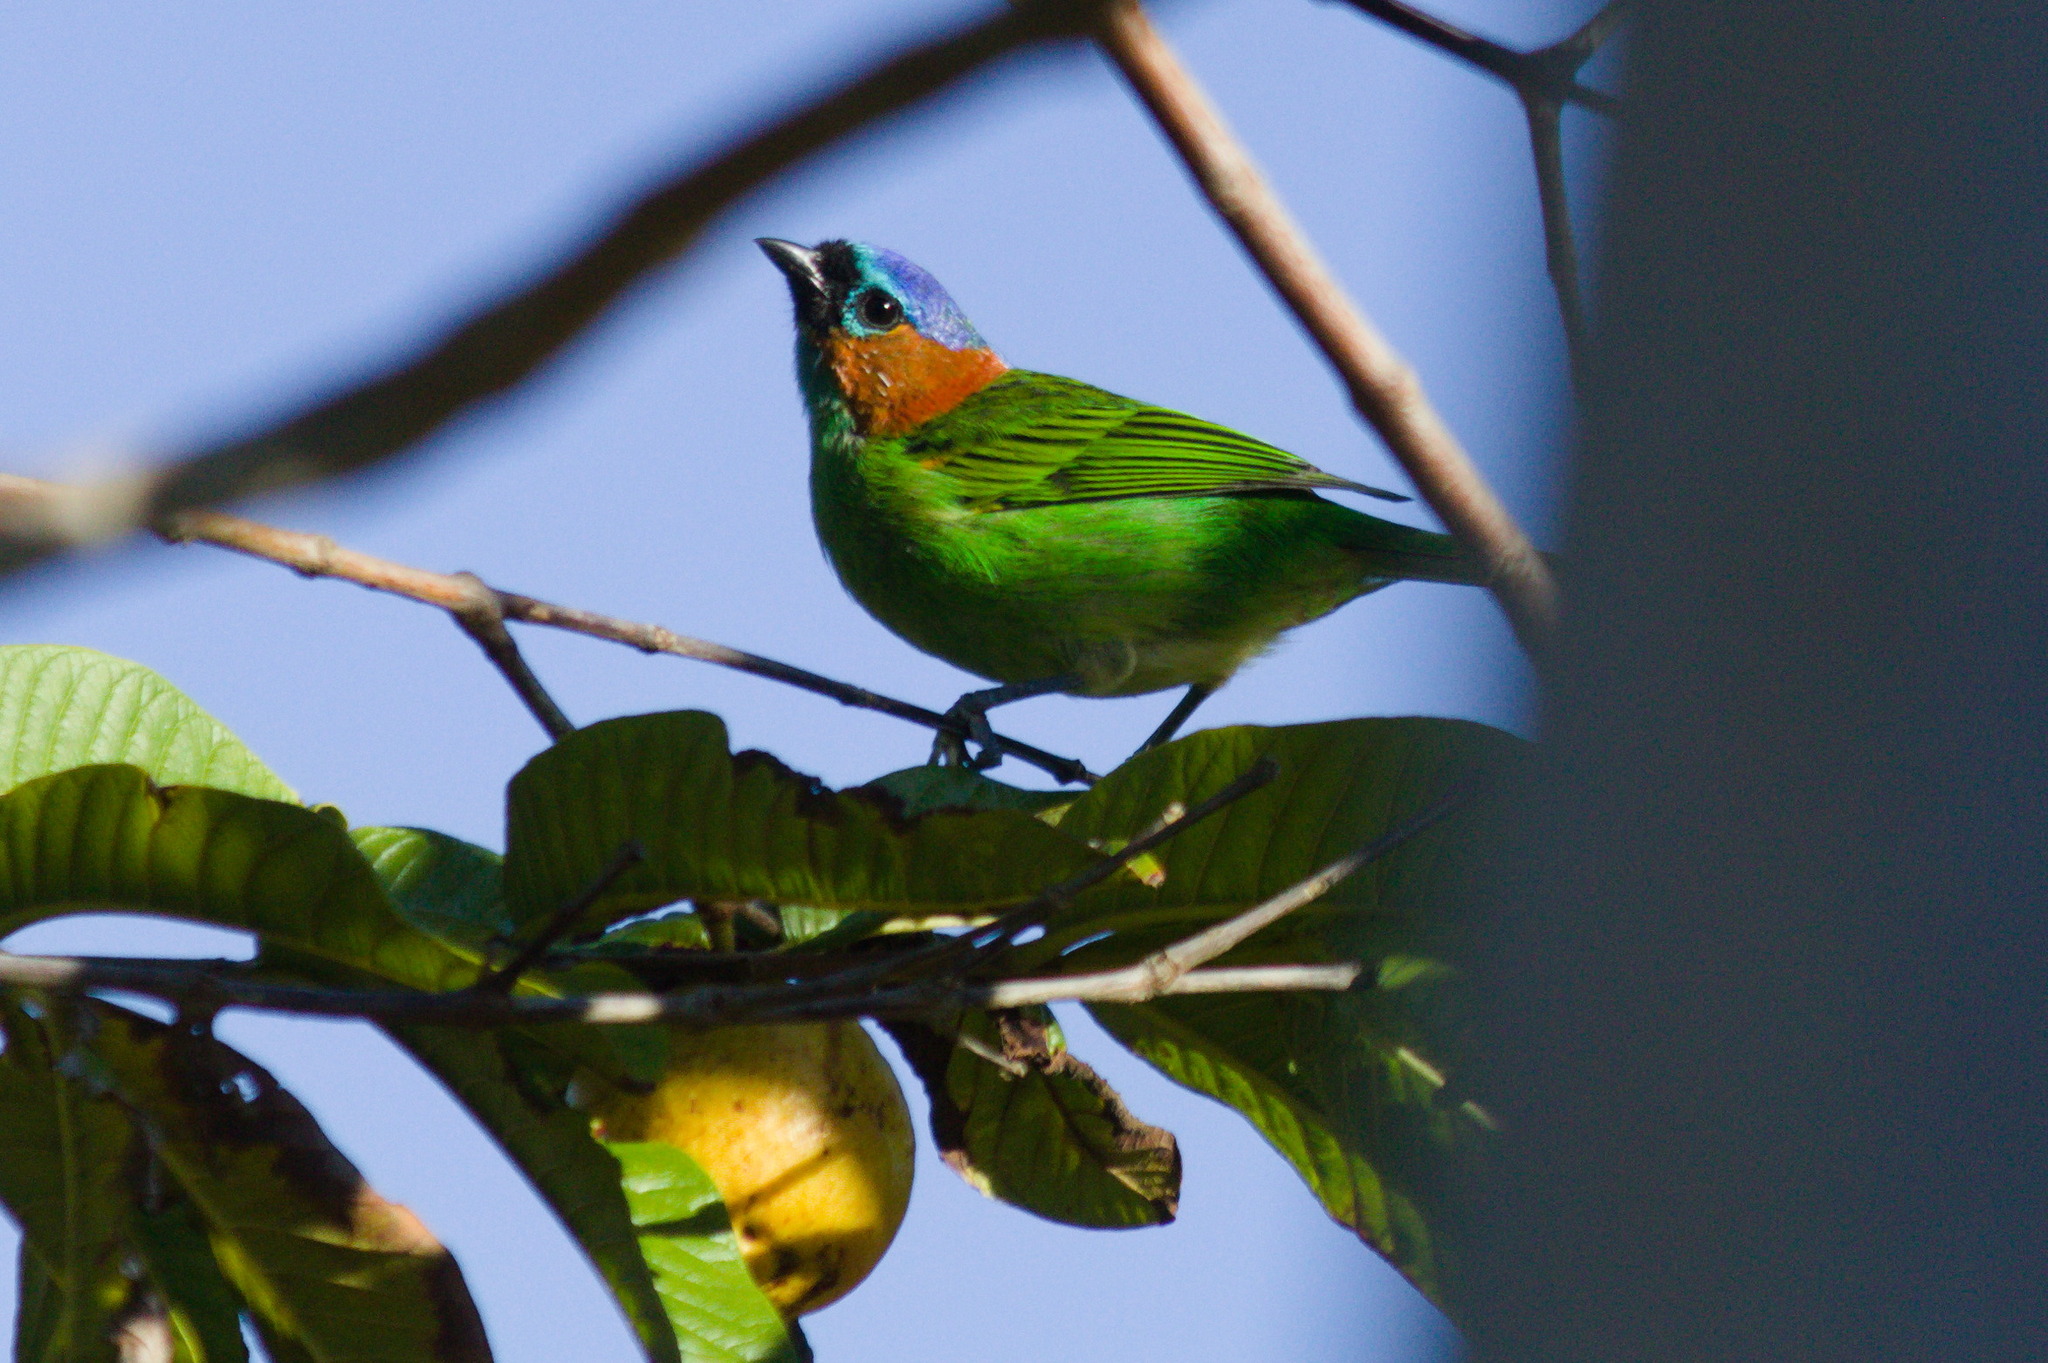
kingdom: Animalia
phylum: Chordata
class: Aves
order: Passeriformes
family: Thraupidae
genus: Tangara
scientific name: Tangara cyanocephala
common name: Red-necked tanager
